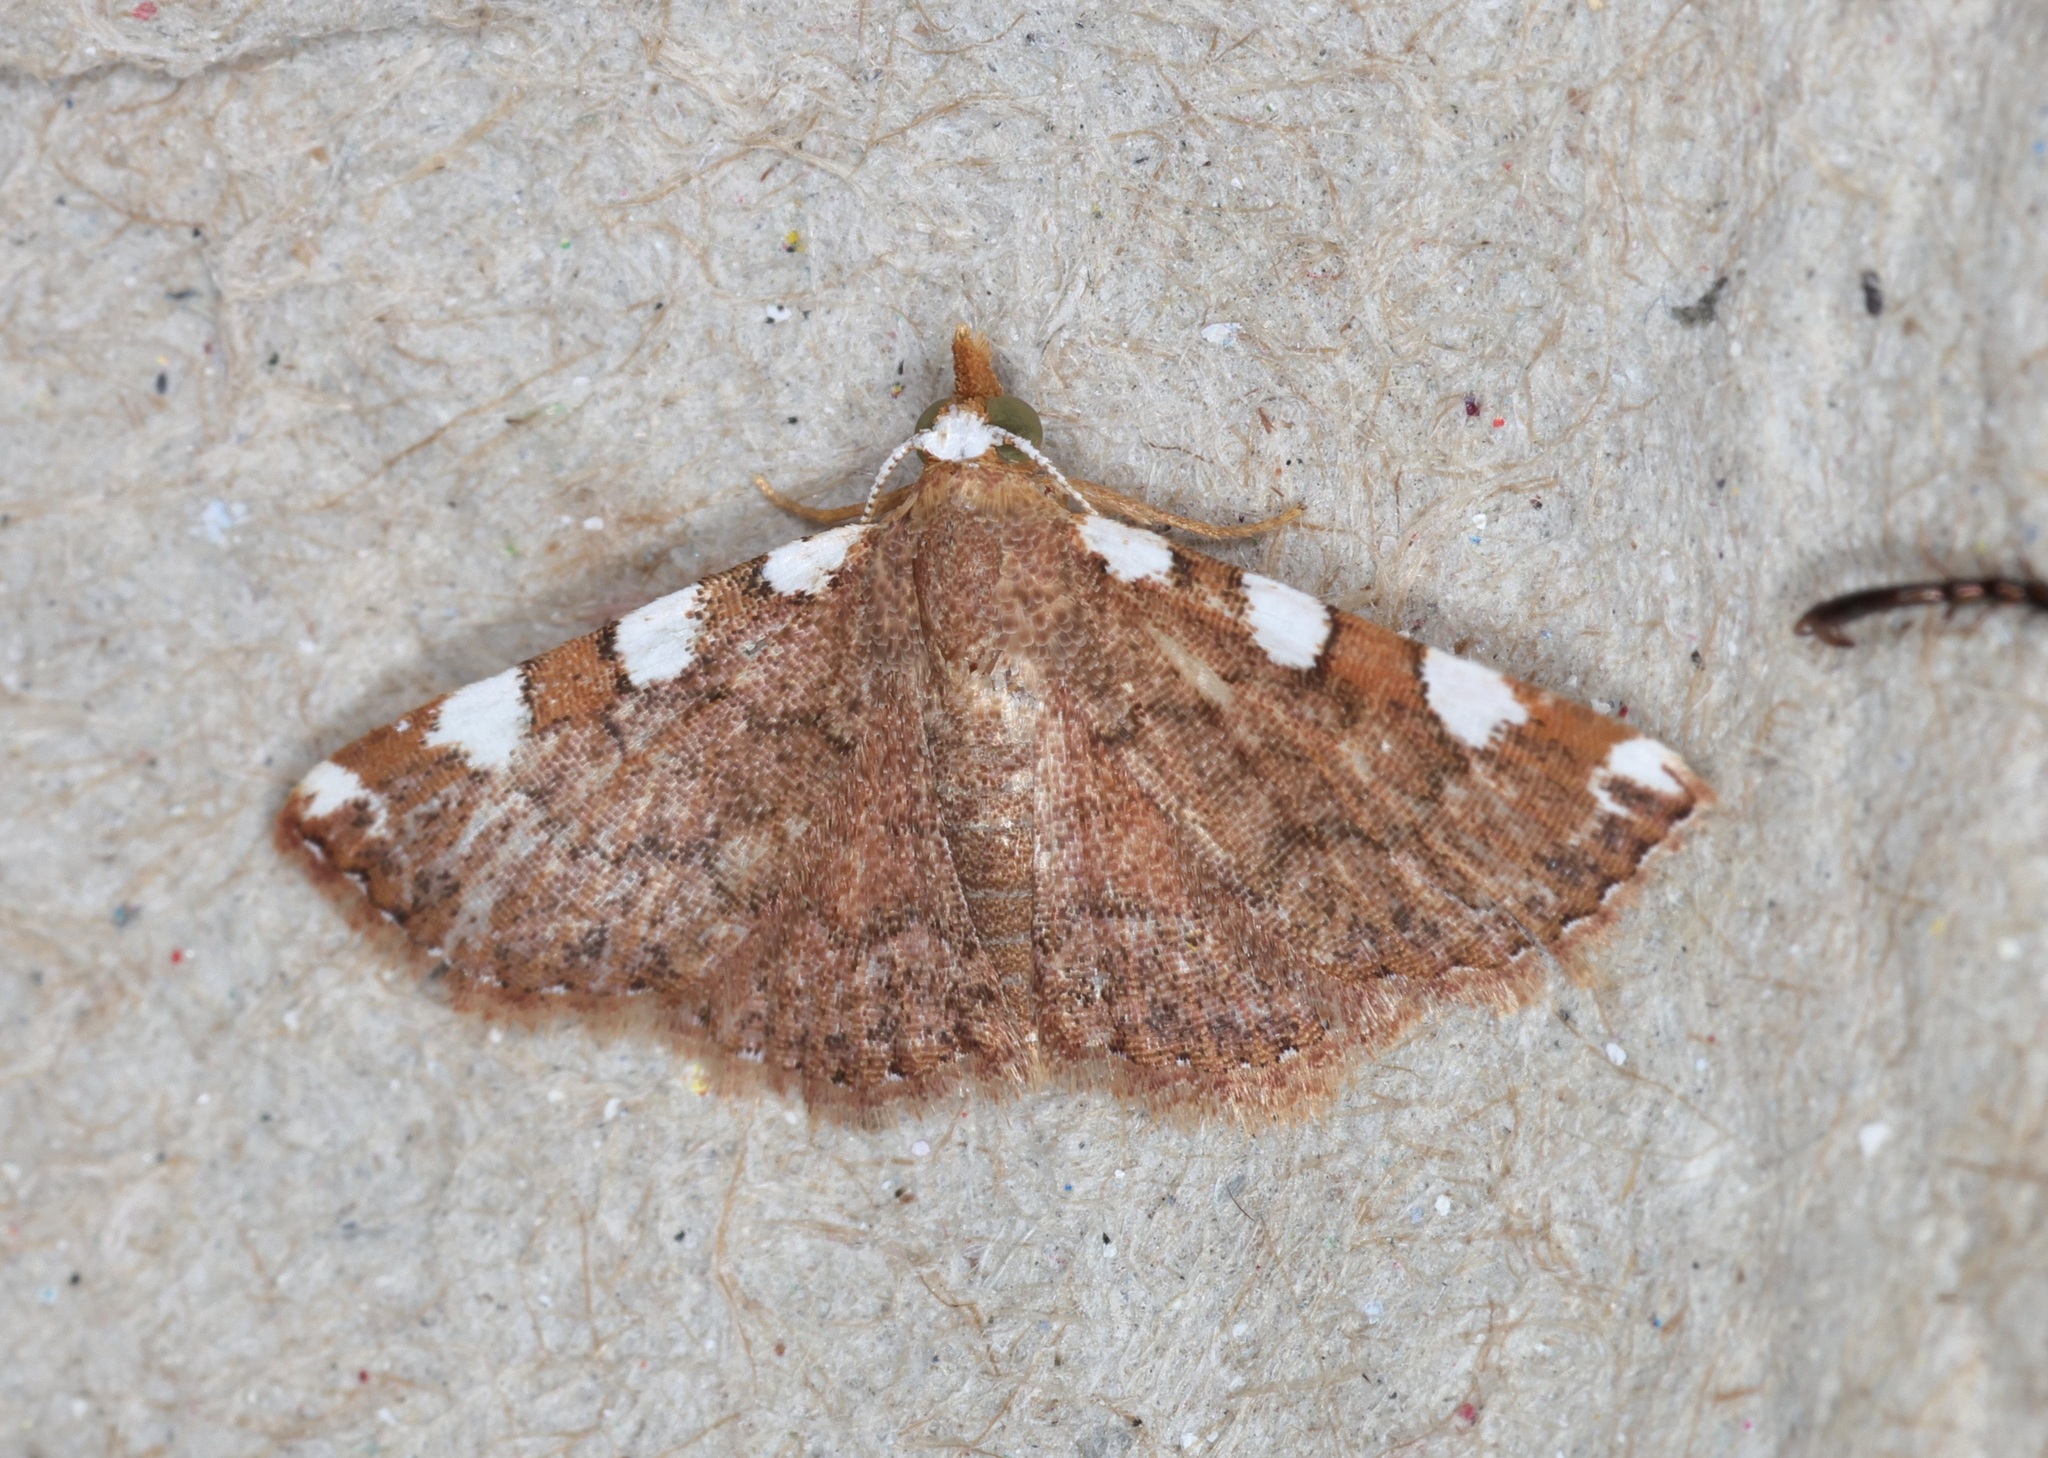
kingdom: Animalia
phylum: Arthropoda
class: Insecta
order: Lepidoptera
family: Erebidae
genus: Corgatha
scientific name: Corgatha pseudominor
